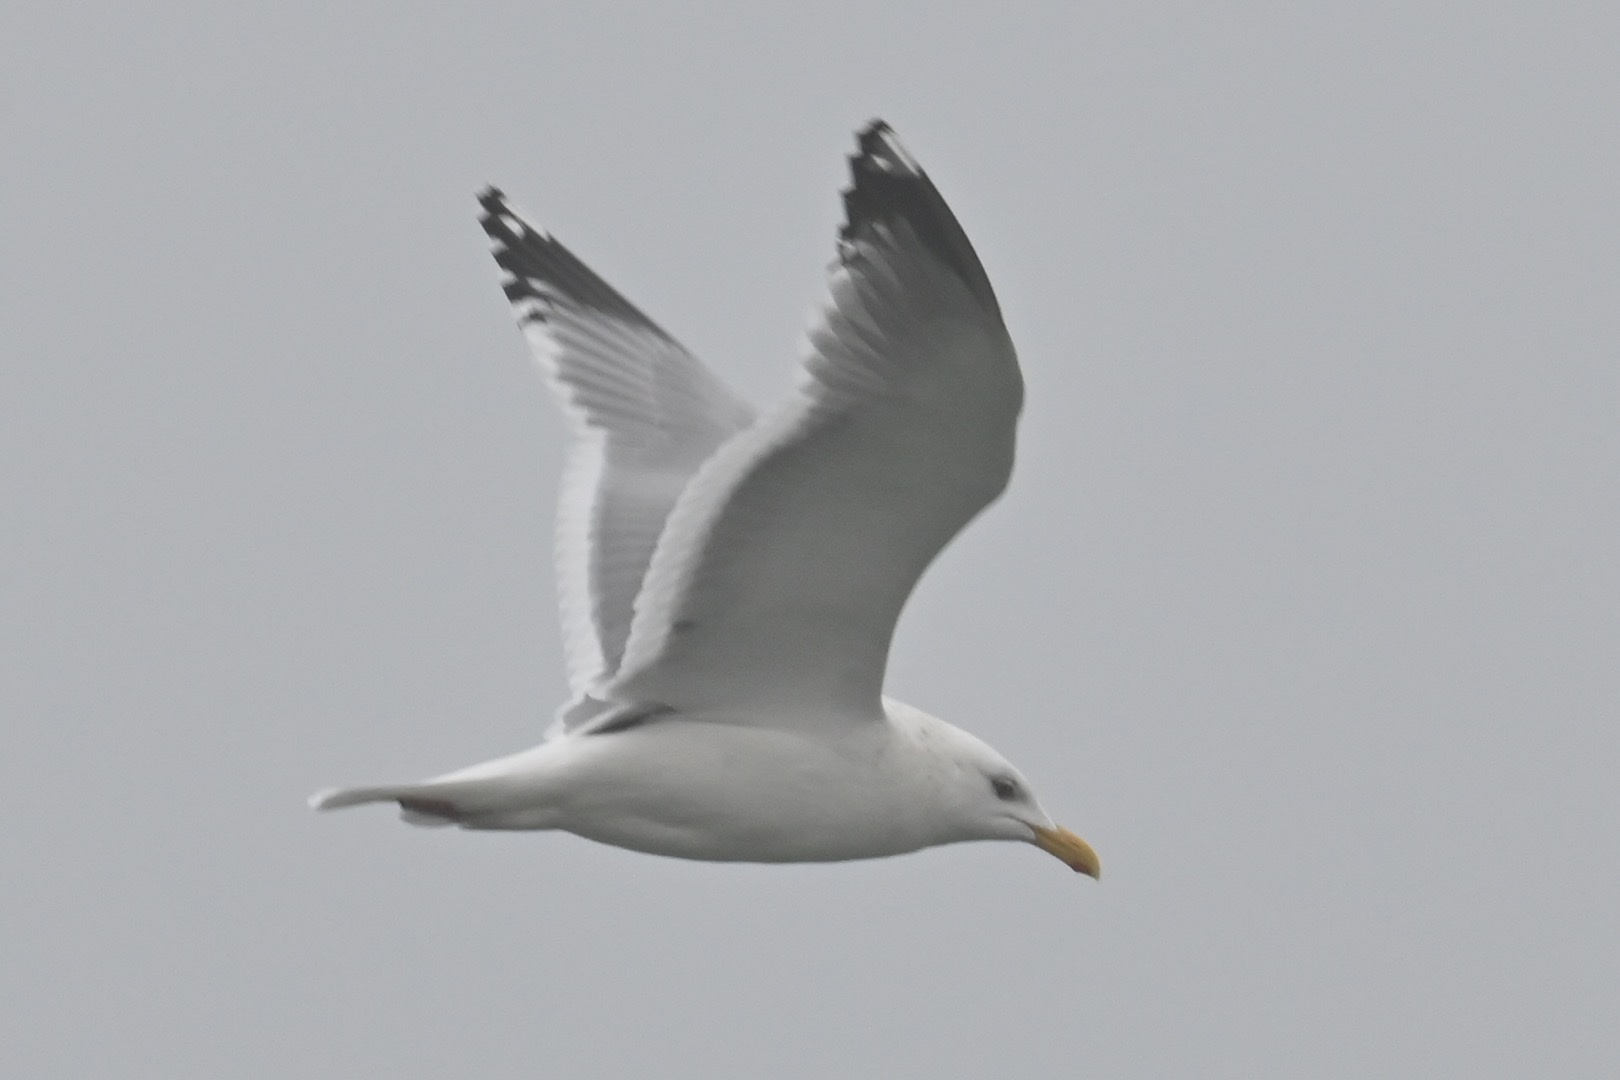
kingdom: Animalia
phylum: Chordata
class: Aves
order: Charadriiformes
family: Laridae
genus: Larus
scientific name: Larus vegae
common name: Vega gull
